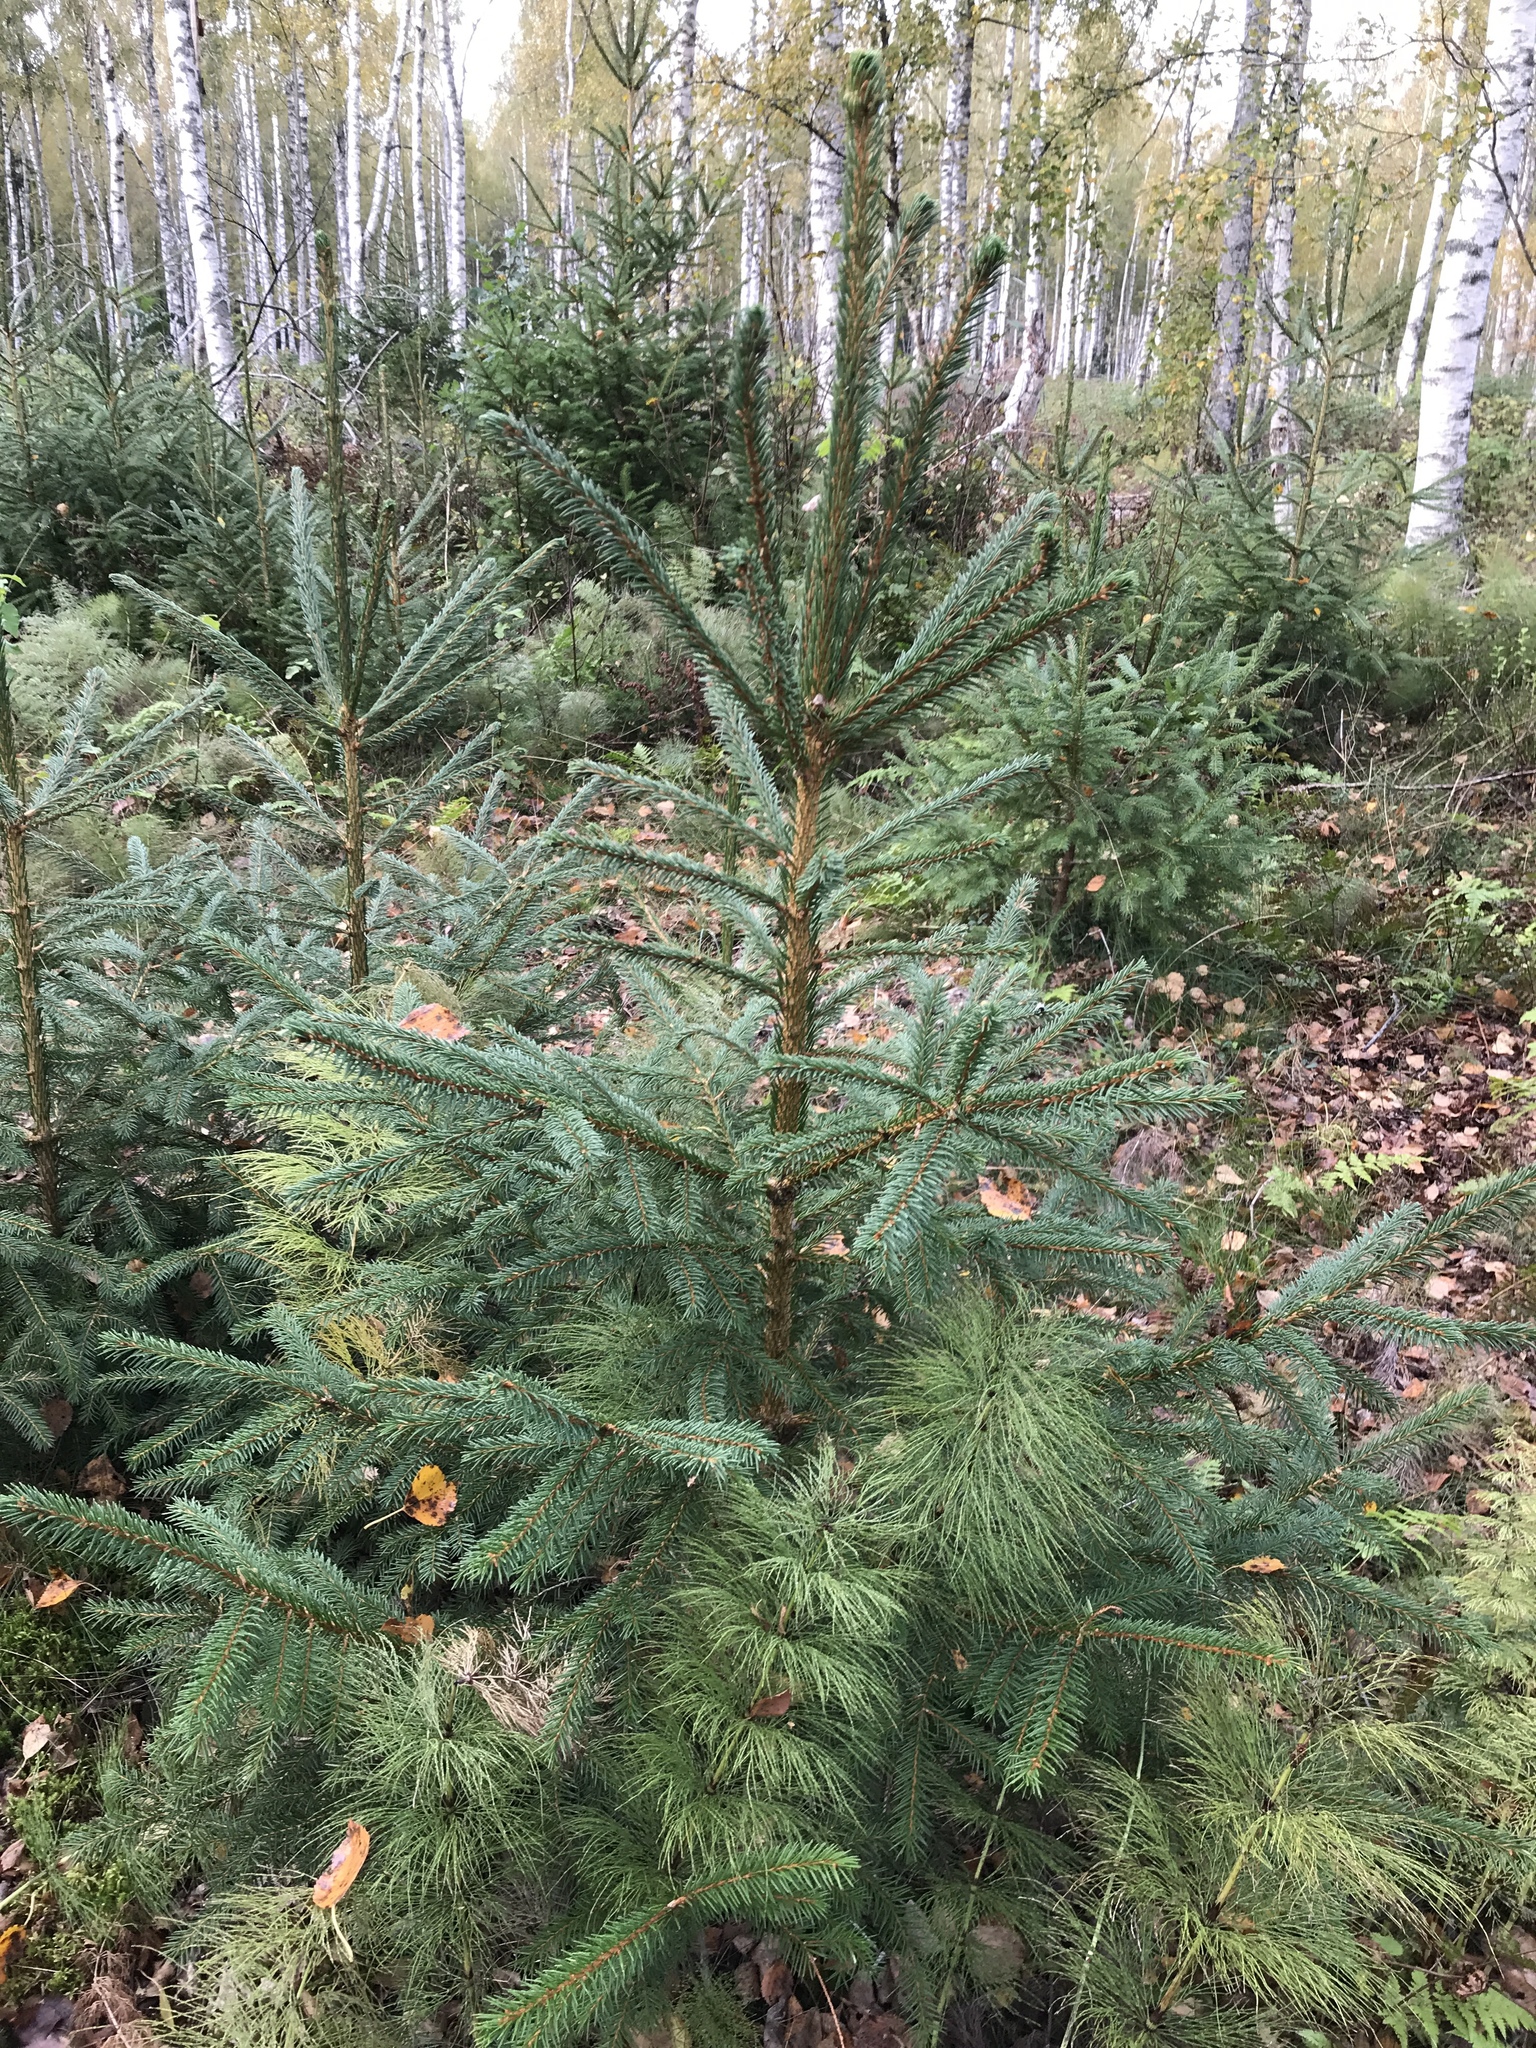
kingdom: Plantae
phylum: Tracheophyta
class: Pinopsida
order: Pinales
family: Pinaceae
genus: Picea
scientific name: Picea abies
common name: Norway spruce
